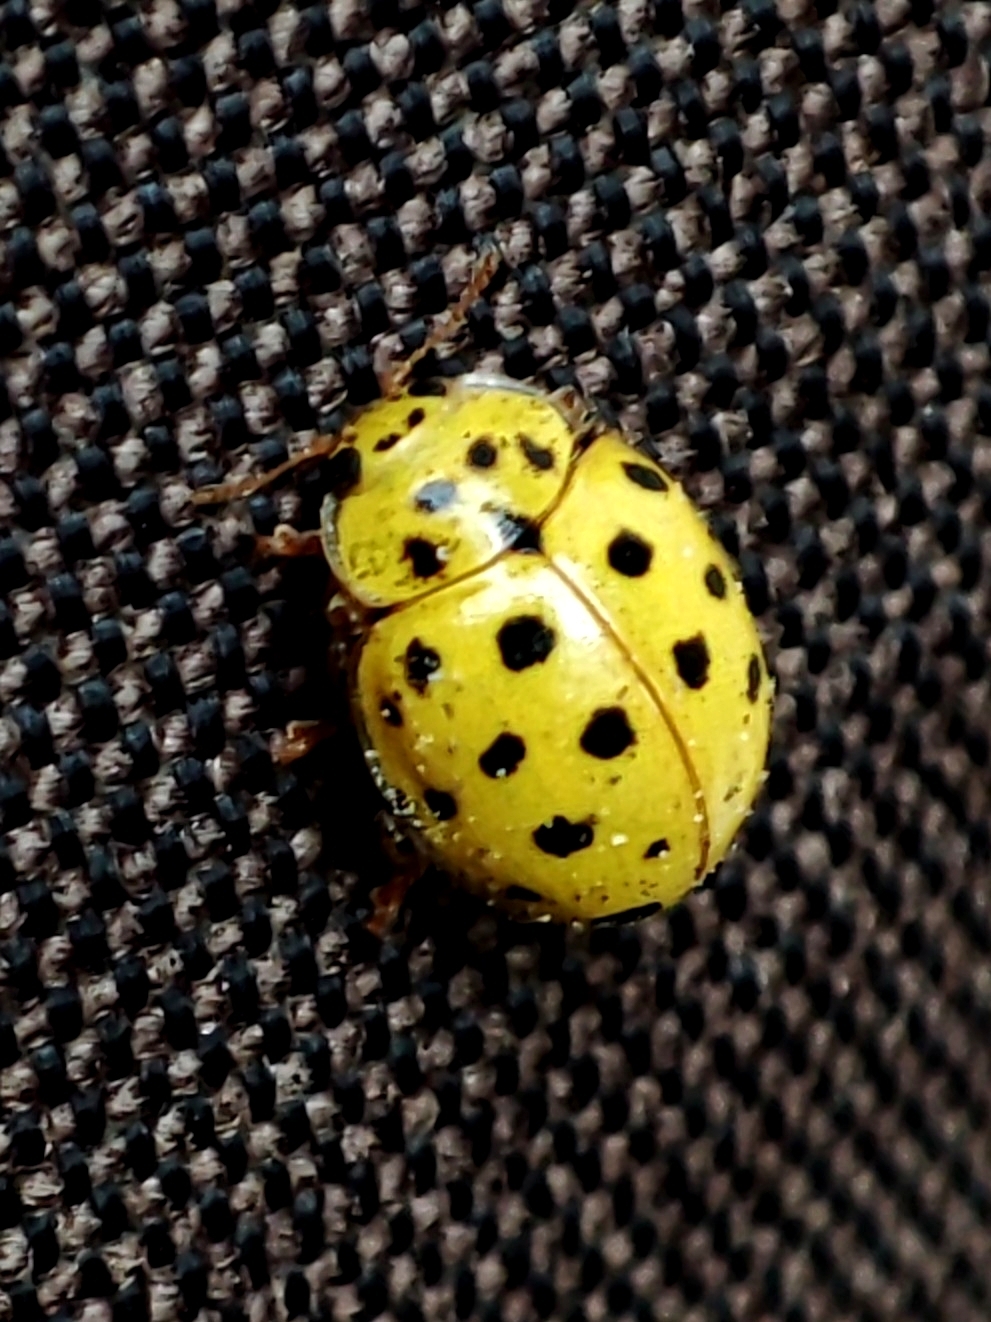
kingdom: Animalia
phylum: Arthropoda
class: Insecta
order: Coleoptera
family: Coccinellidae
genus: Psyllobora
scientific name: Psyllobora vigintiduopunctata
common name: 22-spot ladybird
